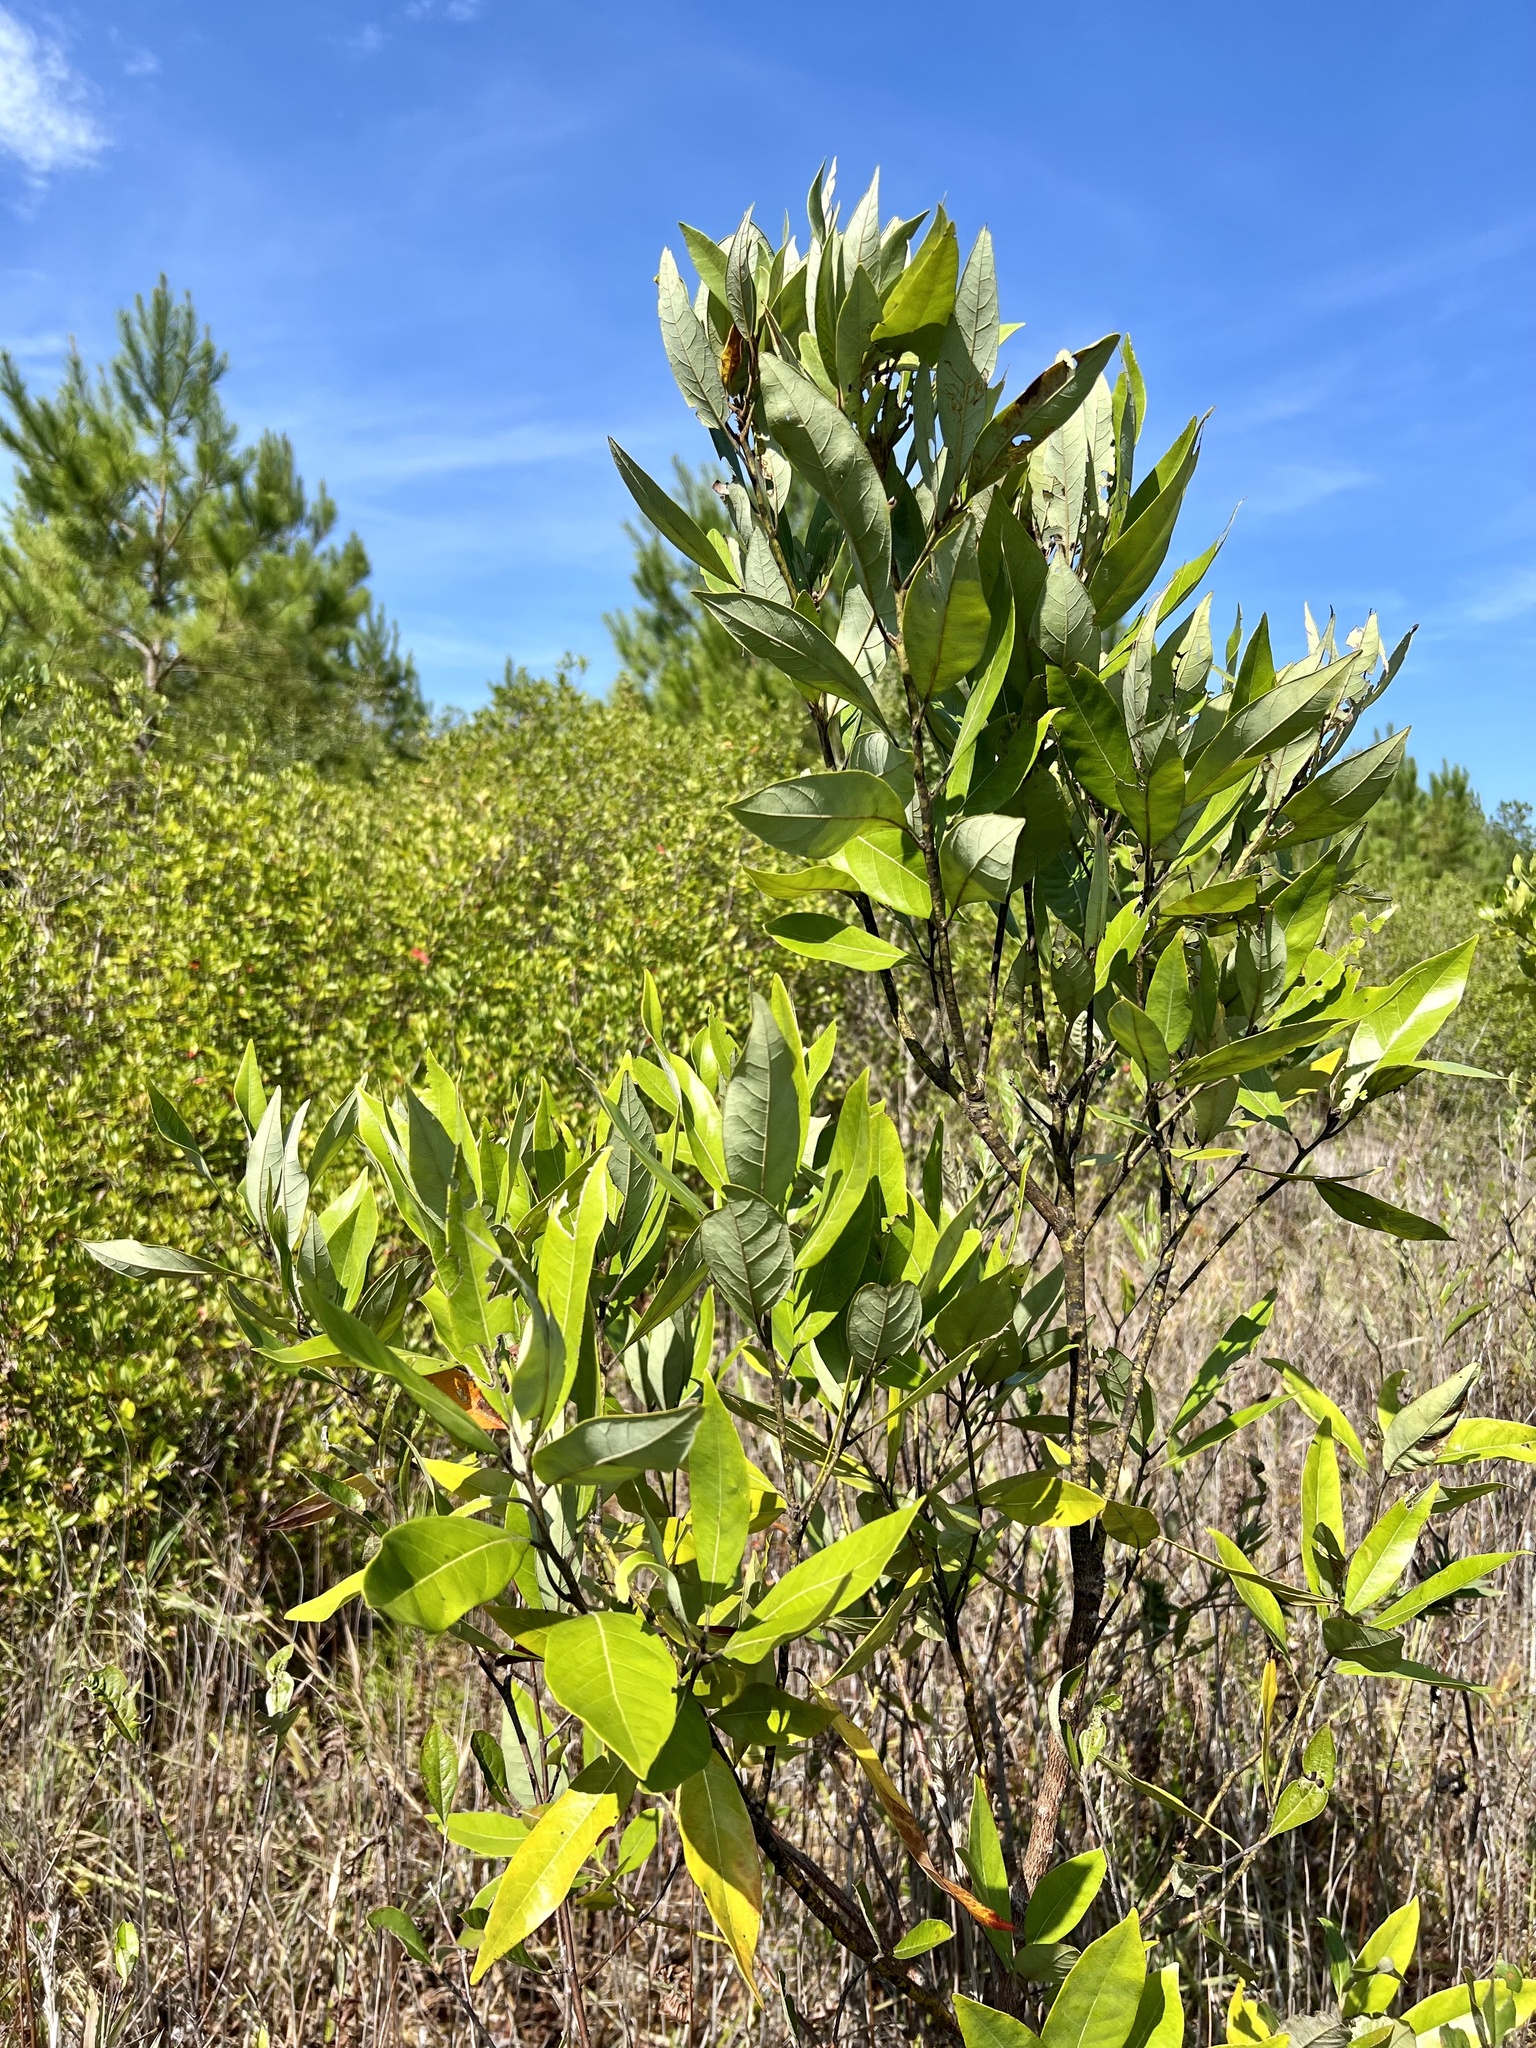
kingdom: Plantae
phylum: Tracheophyta
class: Magnoliopsida
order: Laurales
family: Lauraceae
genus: Persea
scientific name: Persea borbonia
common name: Redbay
